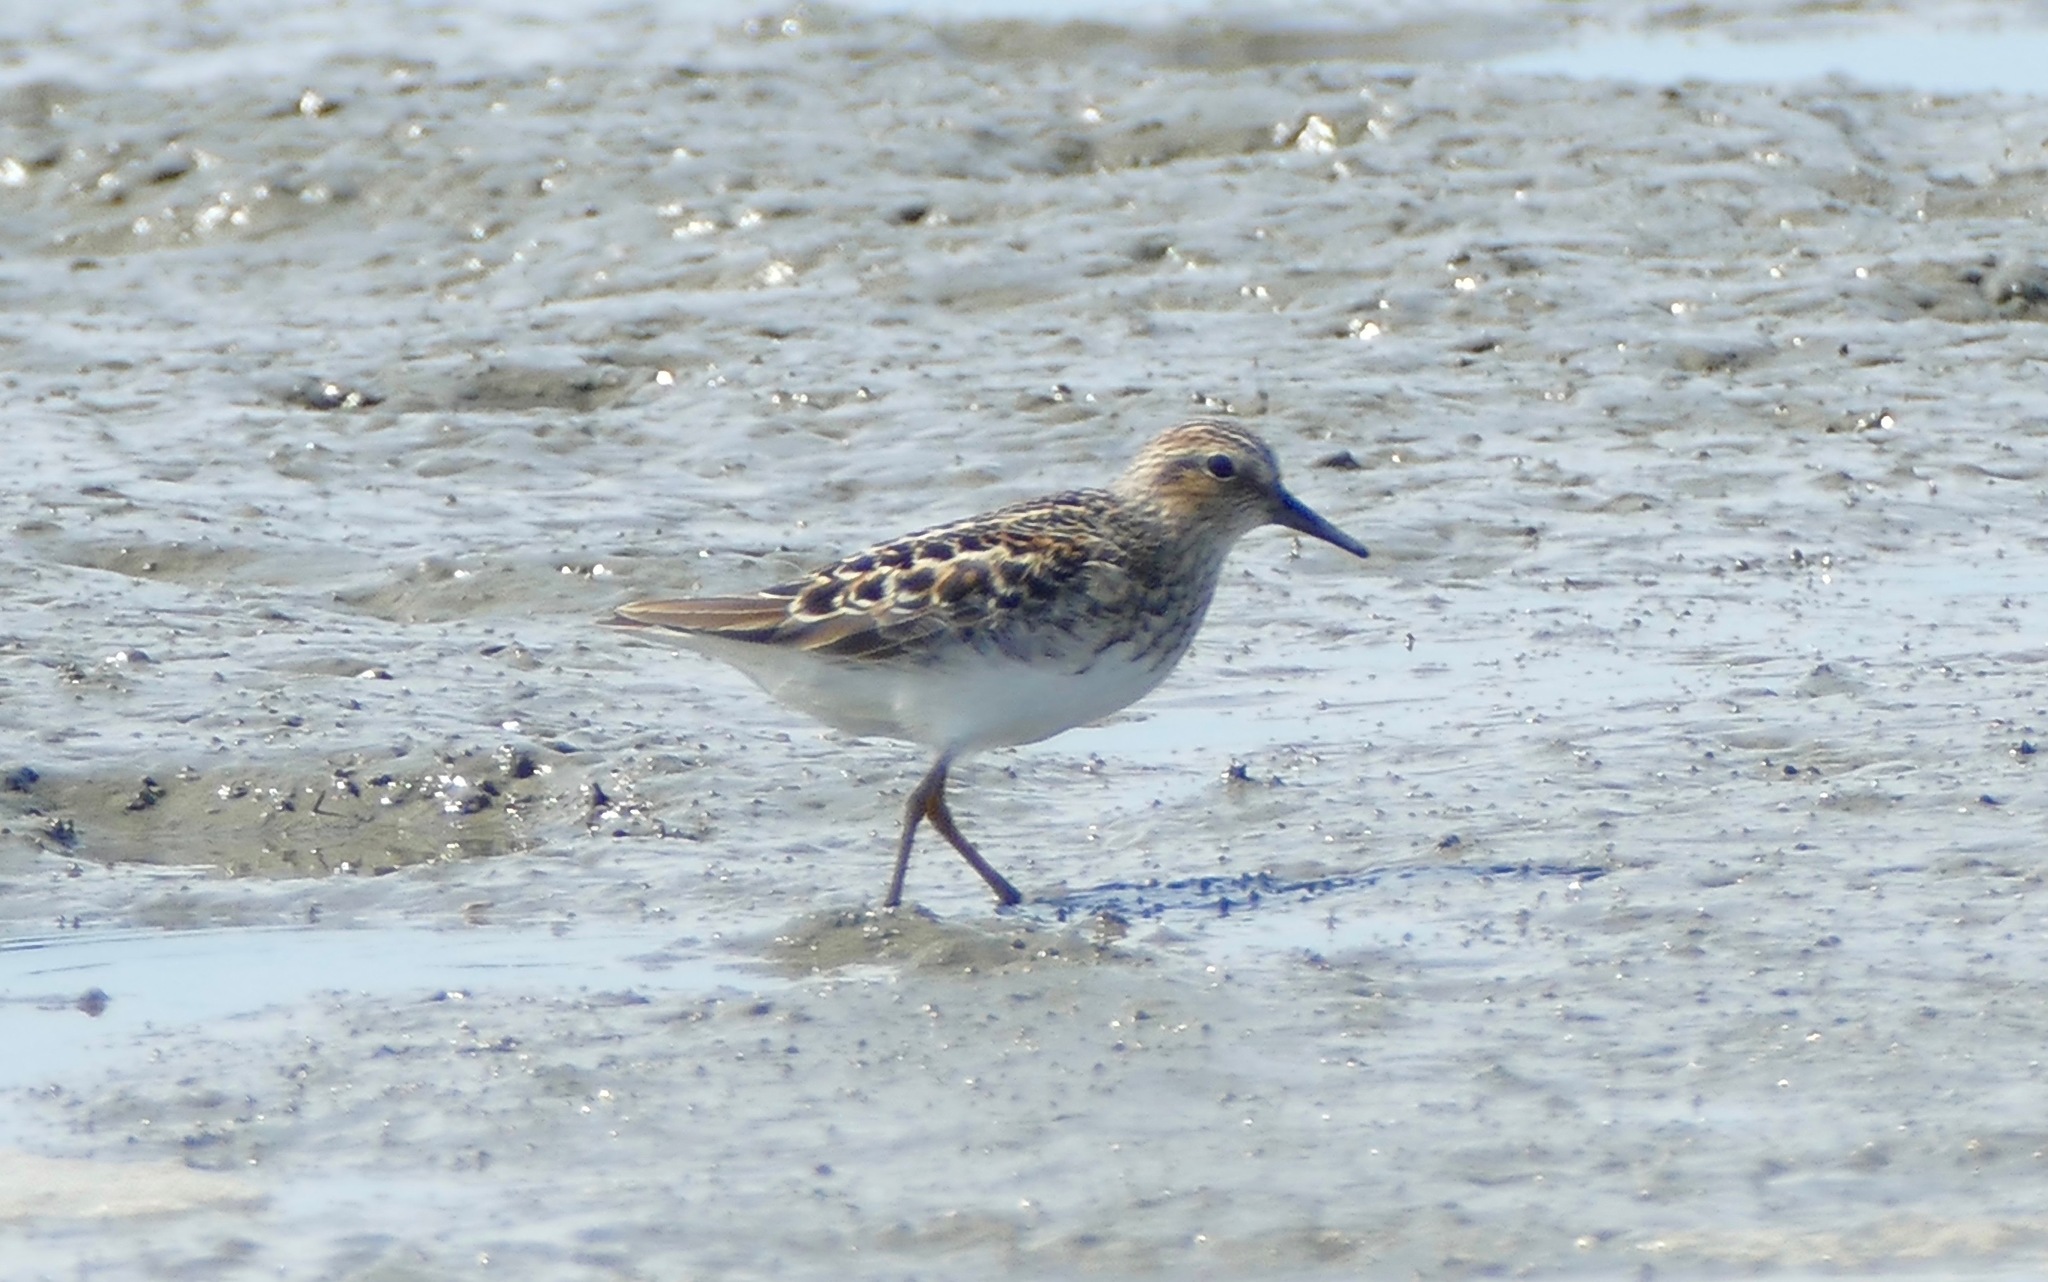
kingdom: Animalia
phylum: Chordata
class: Aves
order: Charadriiformes
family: Scolopacidae
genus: Calidris
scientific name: Calidris minutilla
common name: Least sandpiper
